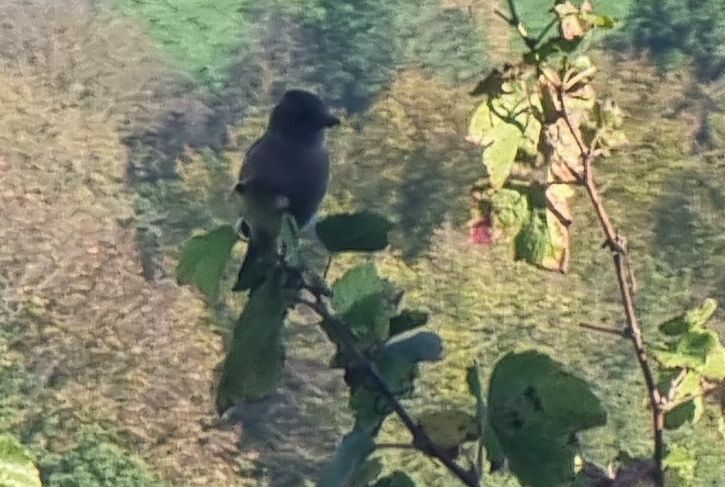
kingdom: Animalia
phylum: Chordata
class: Aves
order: Passeriformes
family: Fringillidae
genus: Fringilla
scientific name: Fringilla coelebs
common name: Common chaffinch
